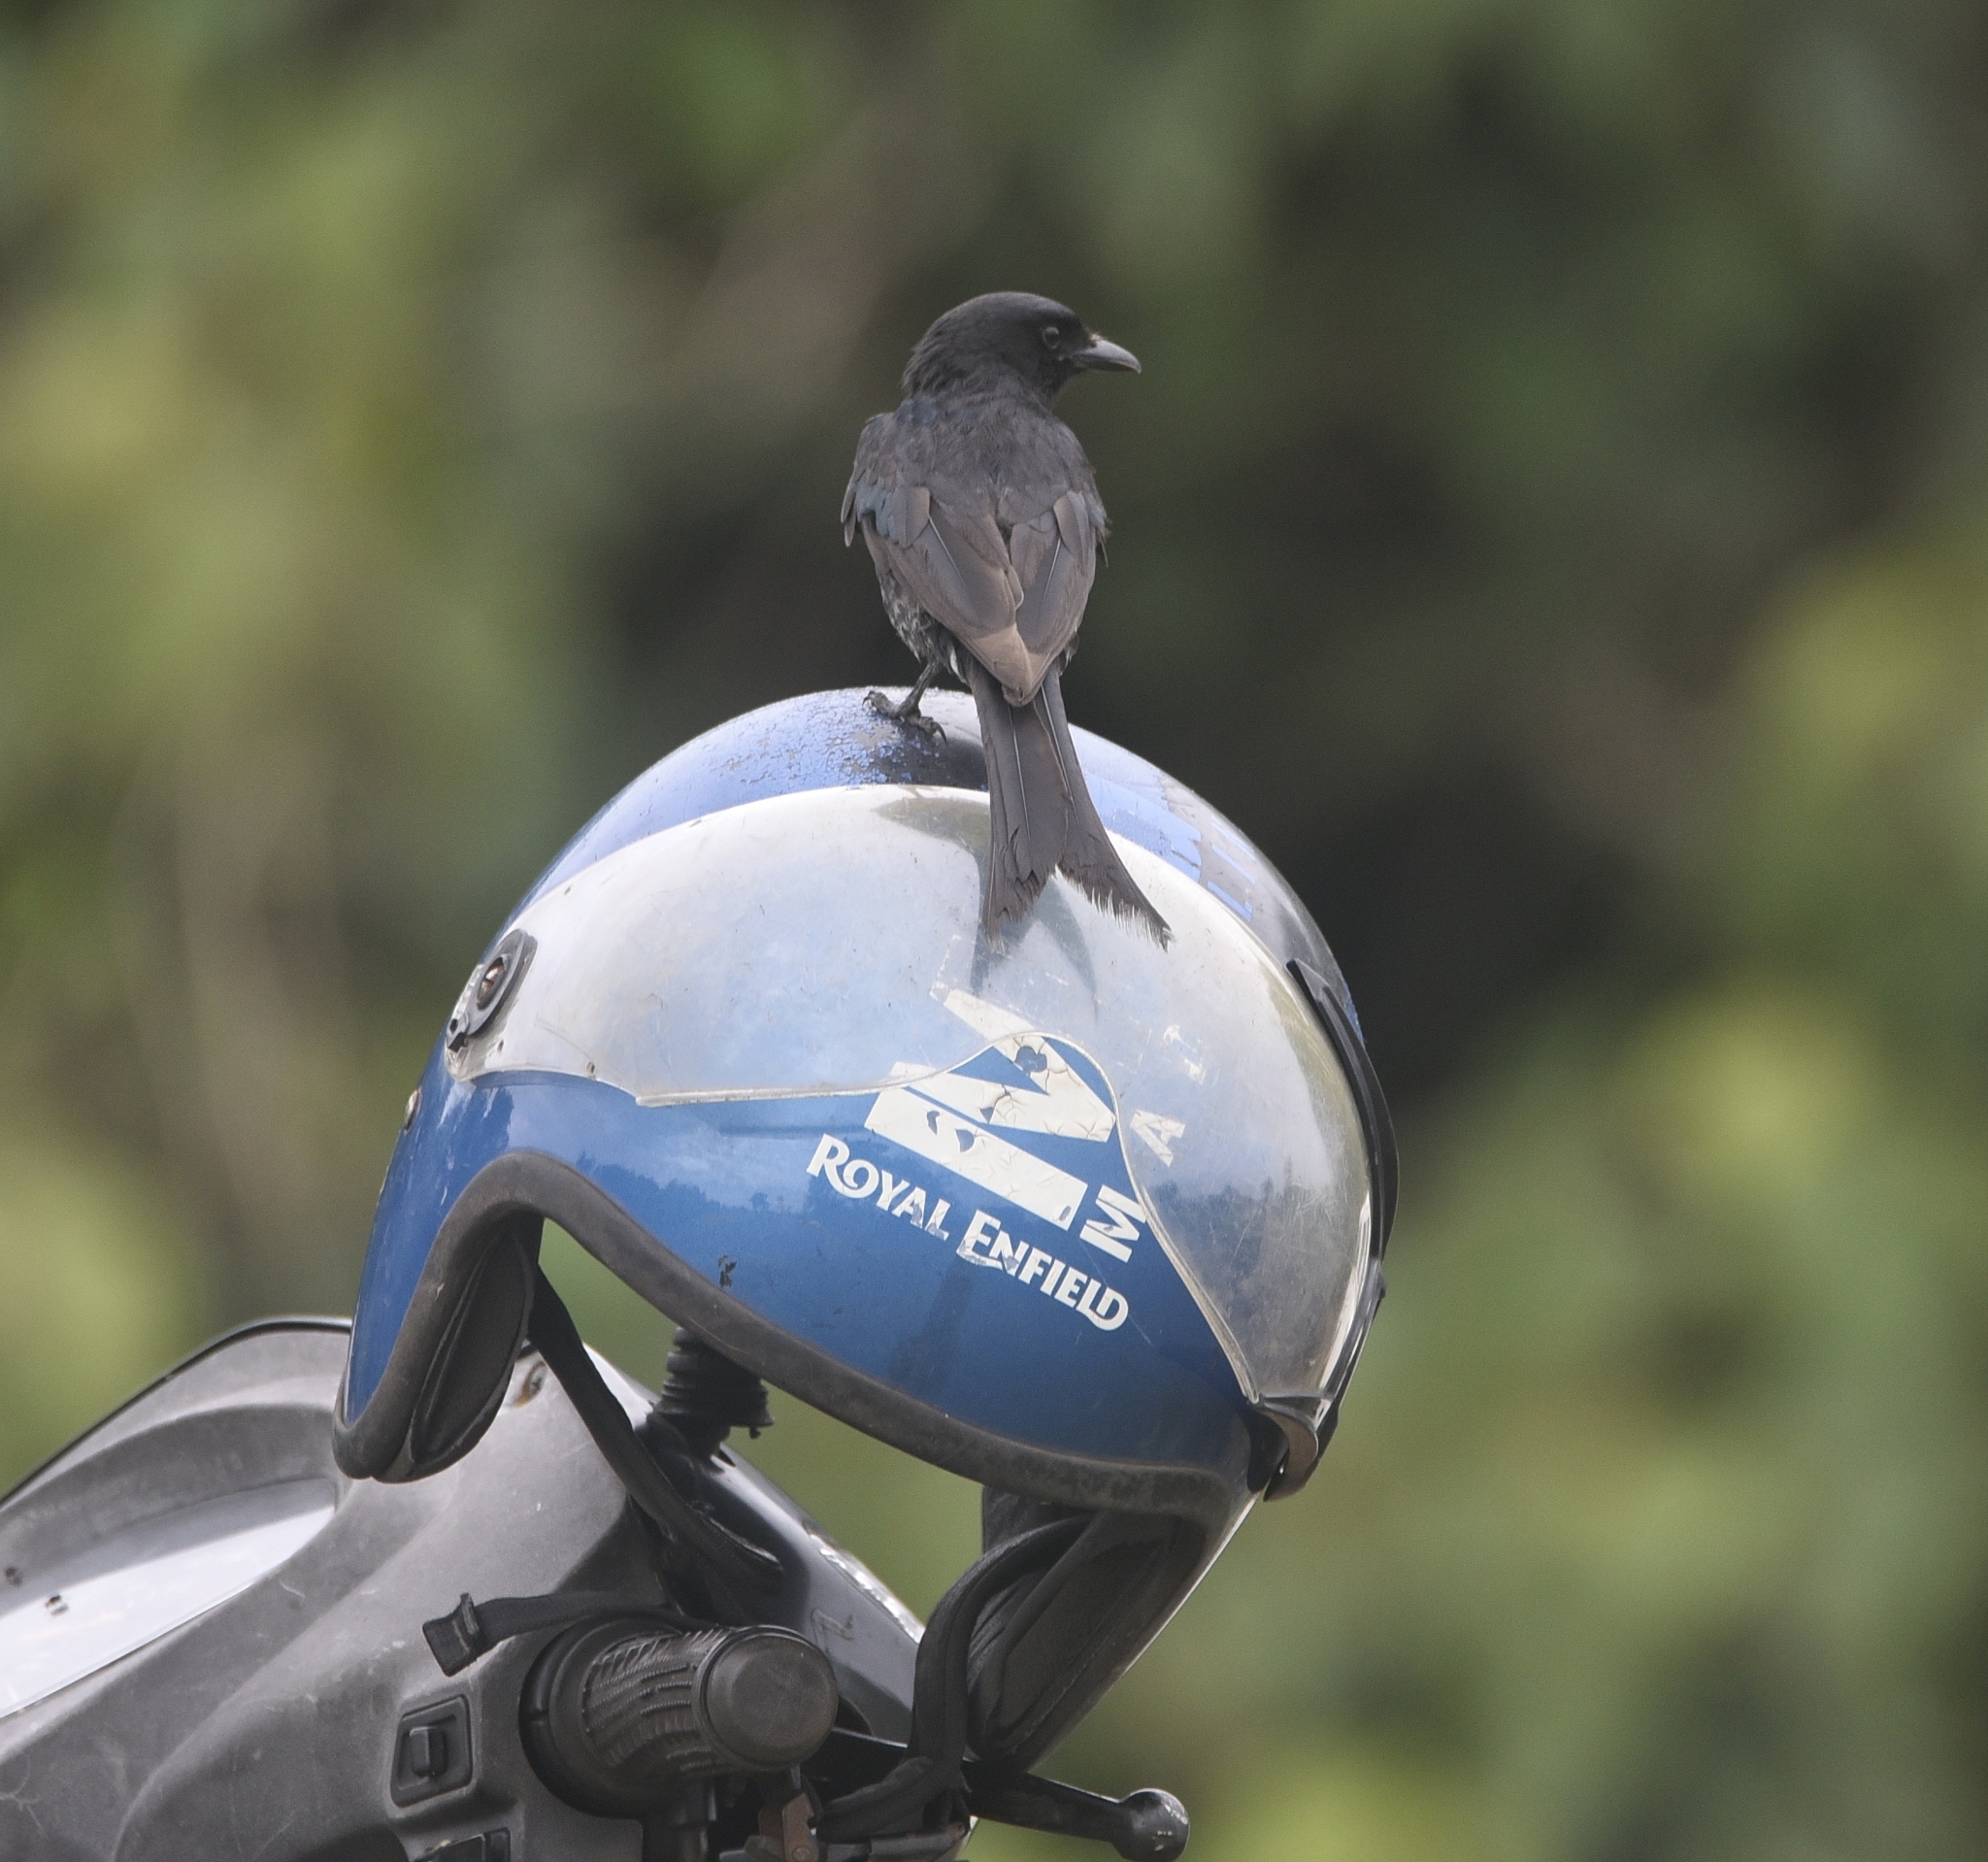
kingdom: Animalia
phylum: Chordata
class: Aves
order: Passeriformes
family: Dicruridae
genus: Dicrurus
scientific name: Dicrurus macrocercus
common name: Black drongo
